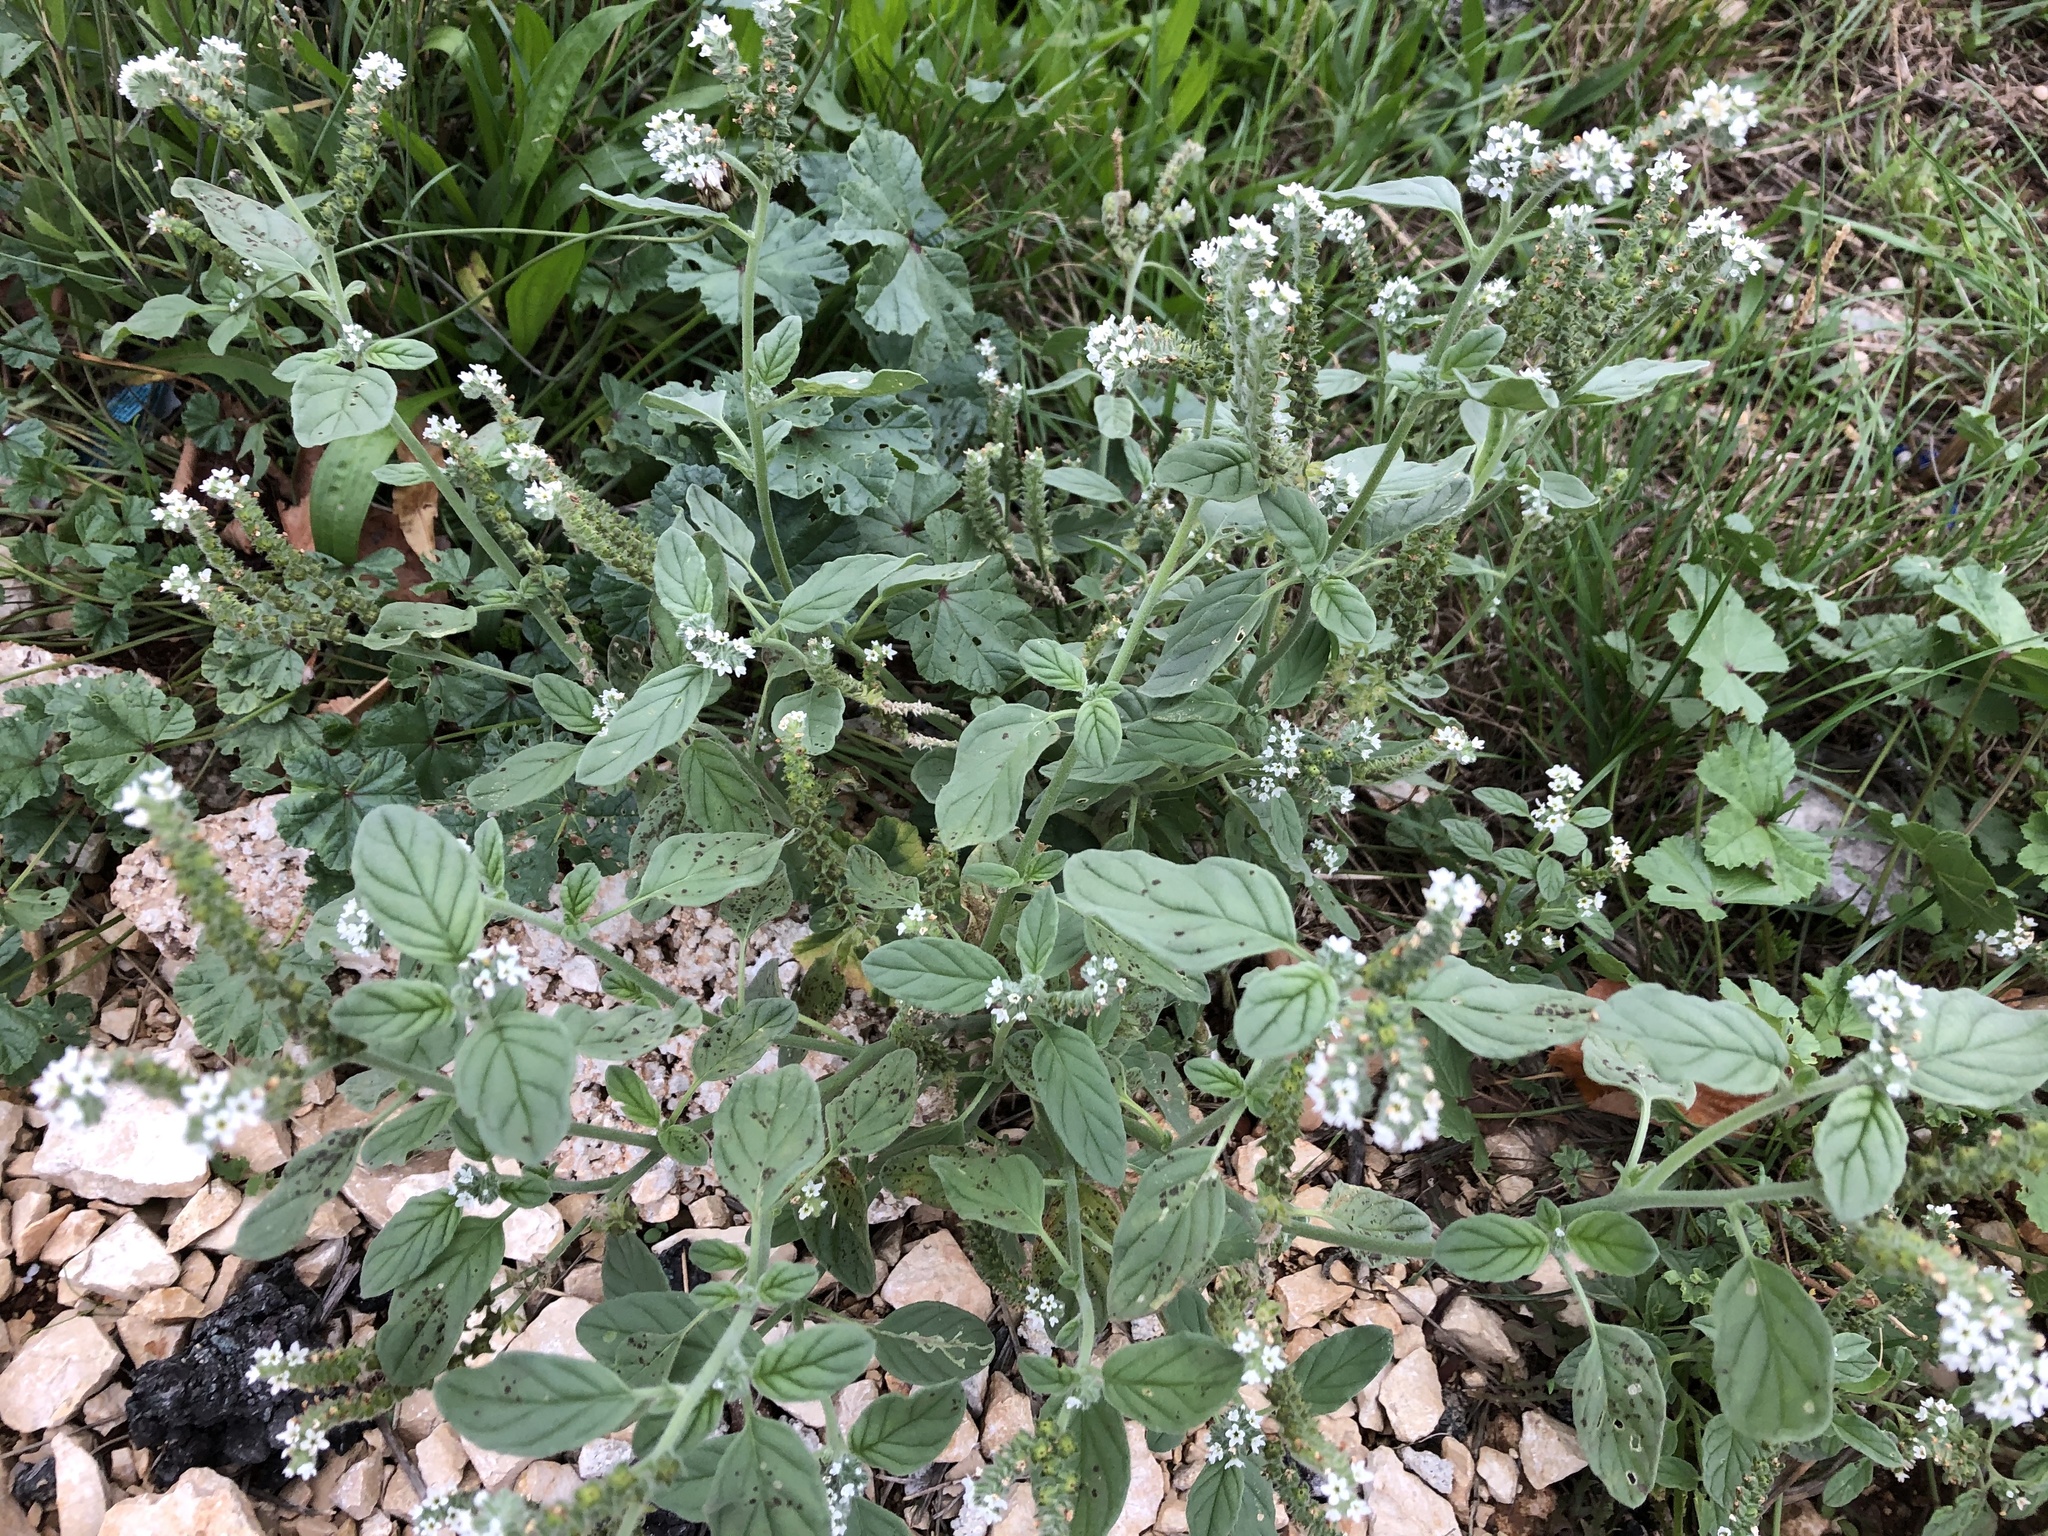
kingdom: Plantae
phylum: Tracheophyta
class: Magnoliopsida
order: Boraginales
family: Heliotropiaceae
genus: Heliotropium
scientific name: Heliotropium europaeum
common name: European heliotrope
